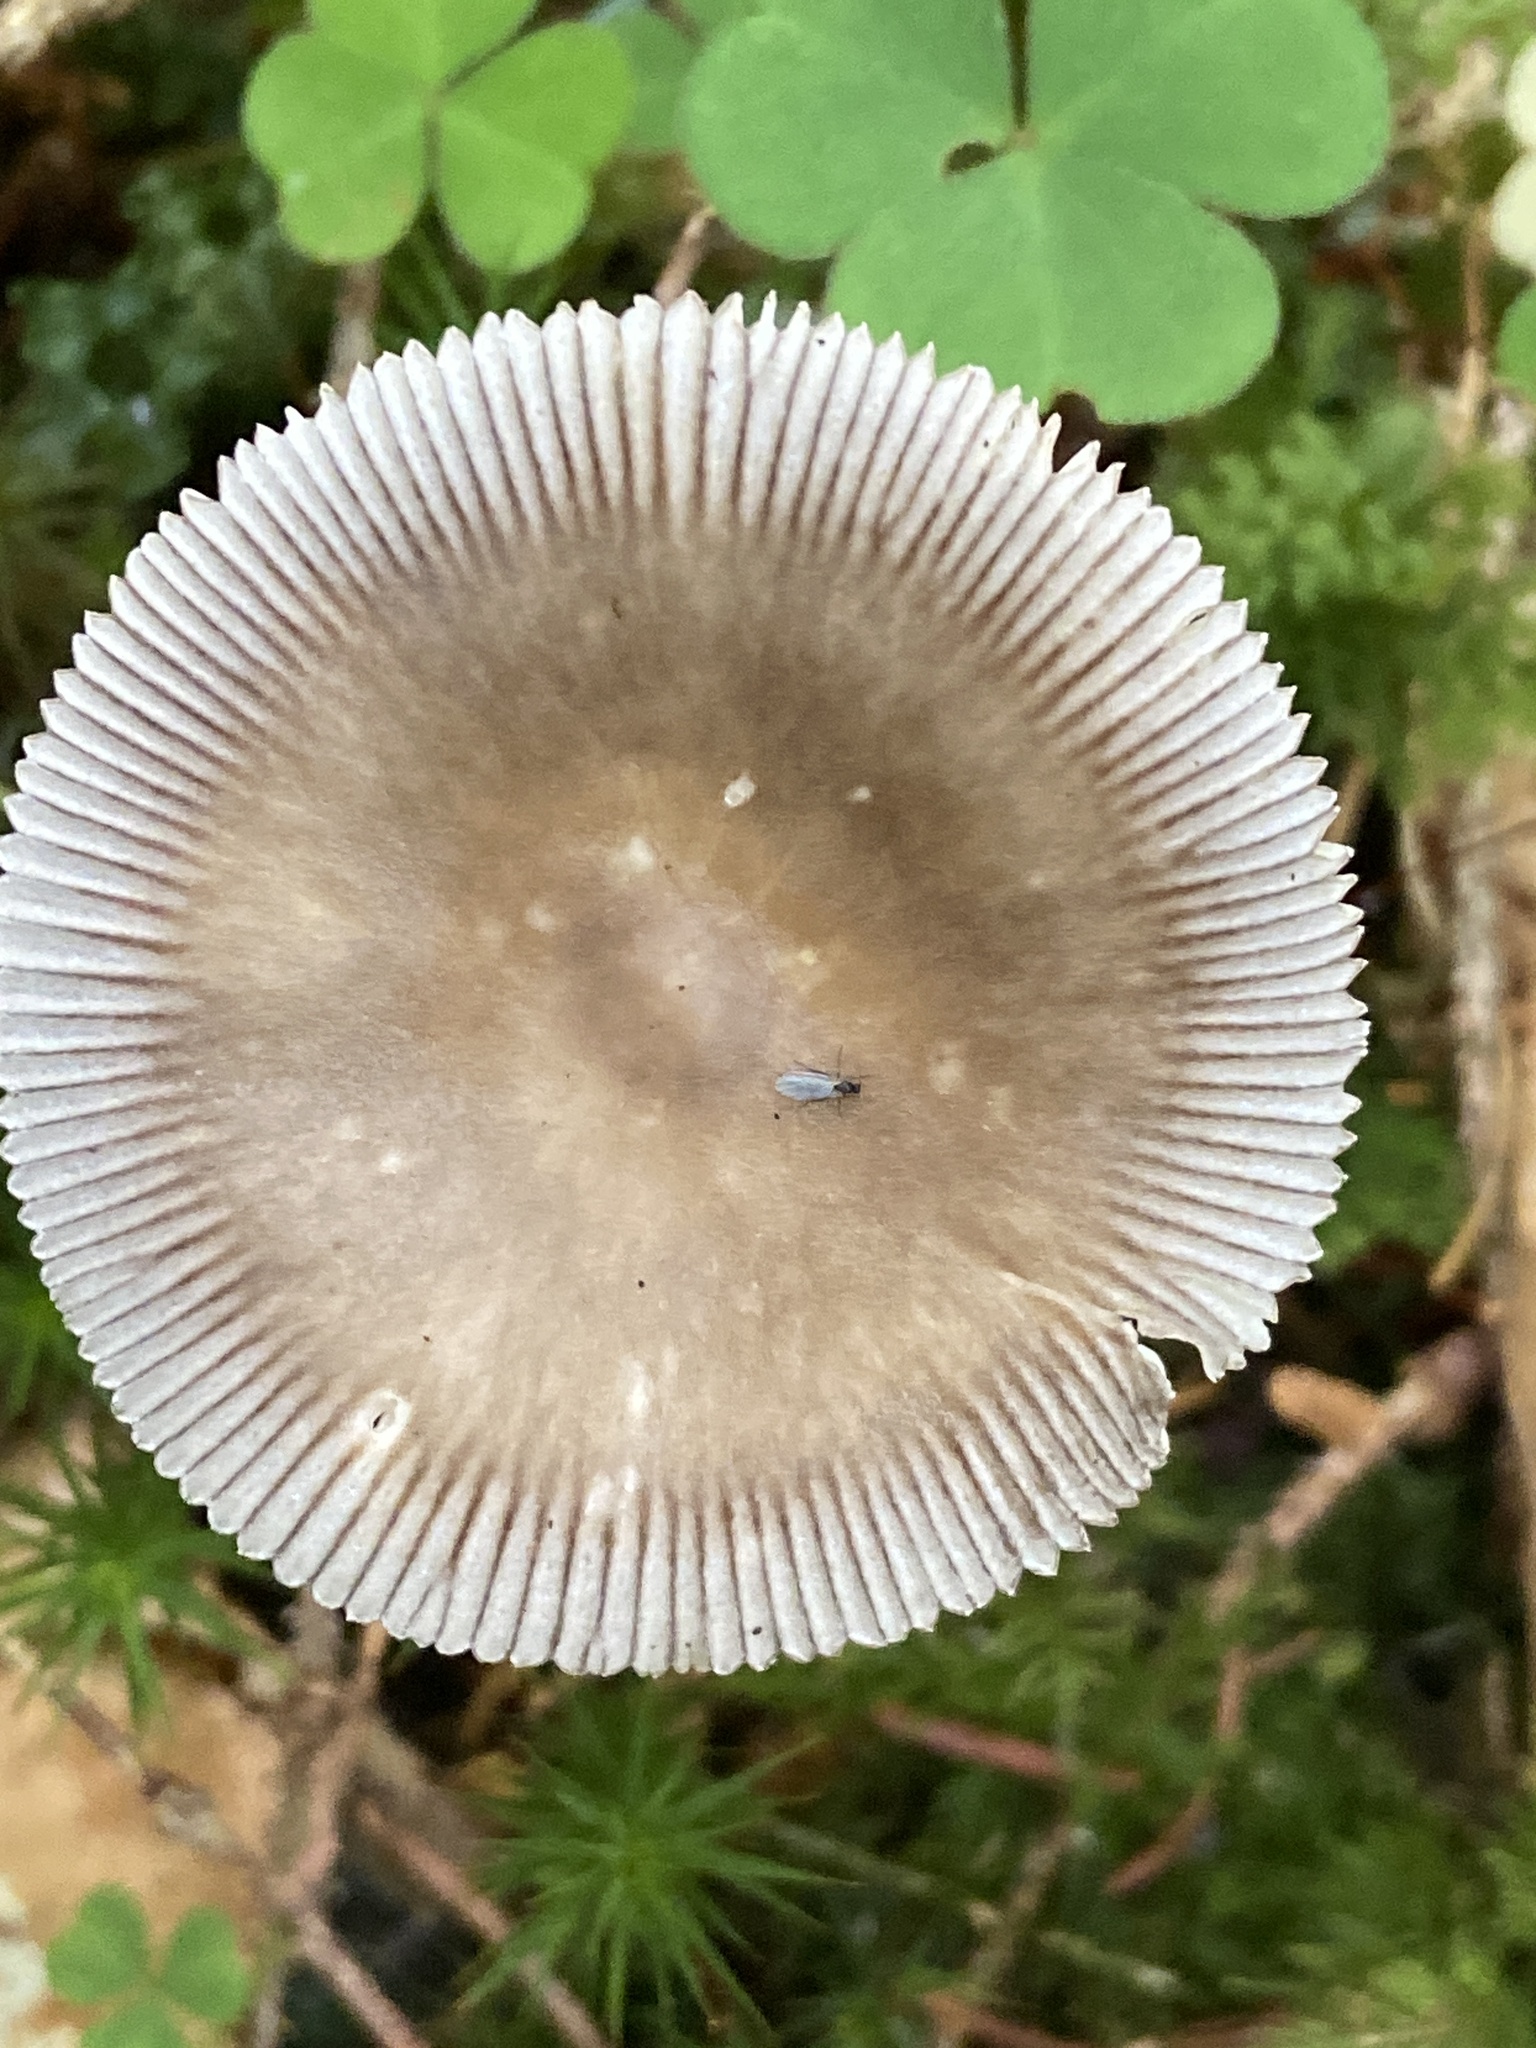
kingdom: Fungi
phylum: Basidiomycota
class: Agaricomycetes
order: Agaricales
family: Amanitaceae
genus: Amanita
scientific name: Amanita battarrae
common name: Banded amanita
